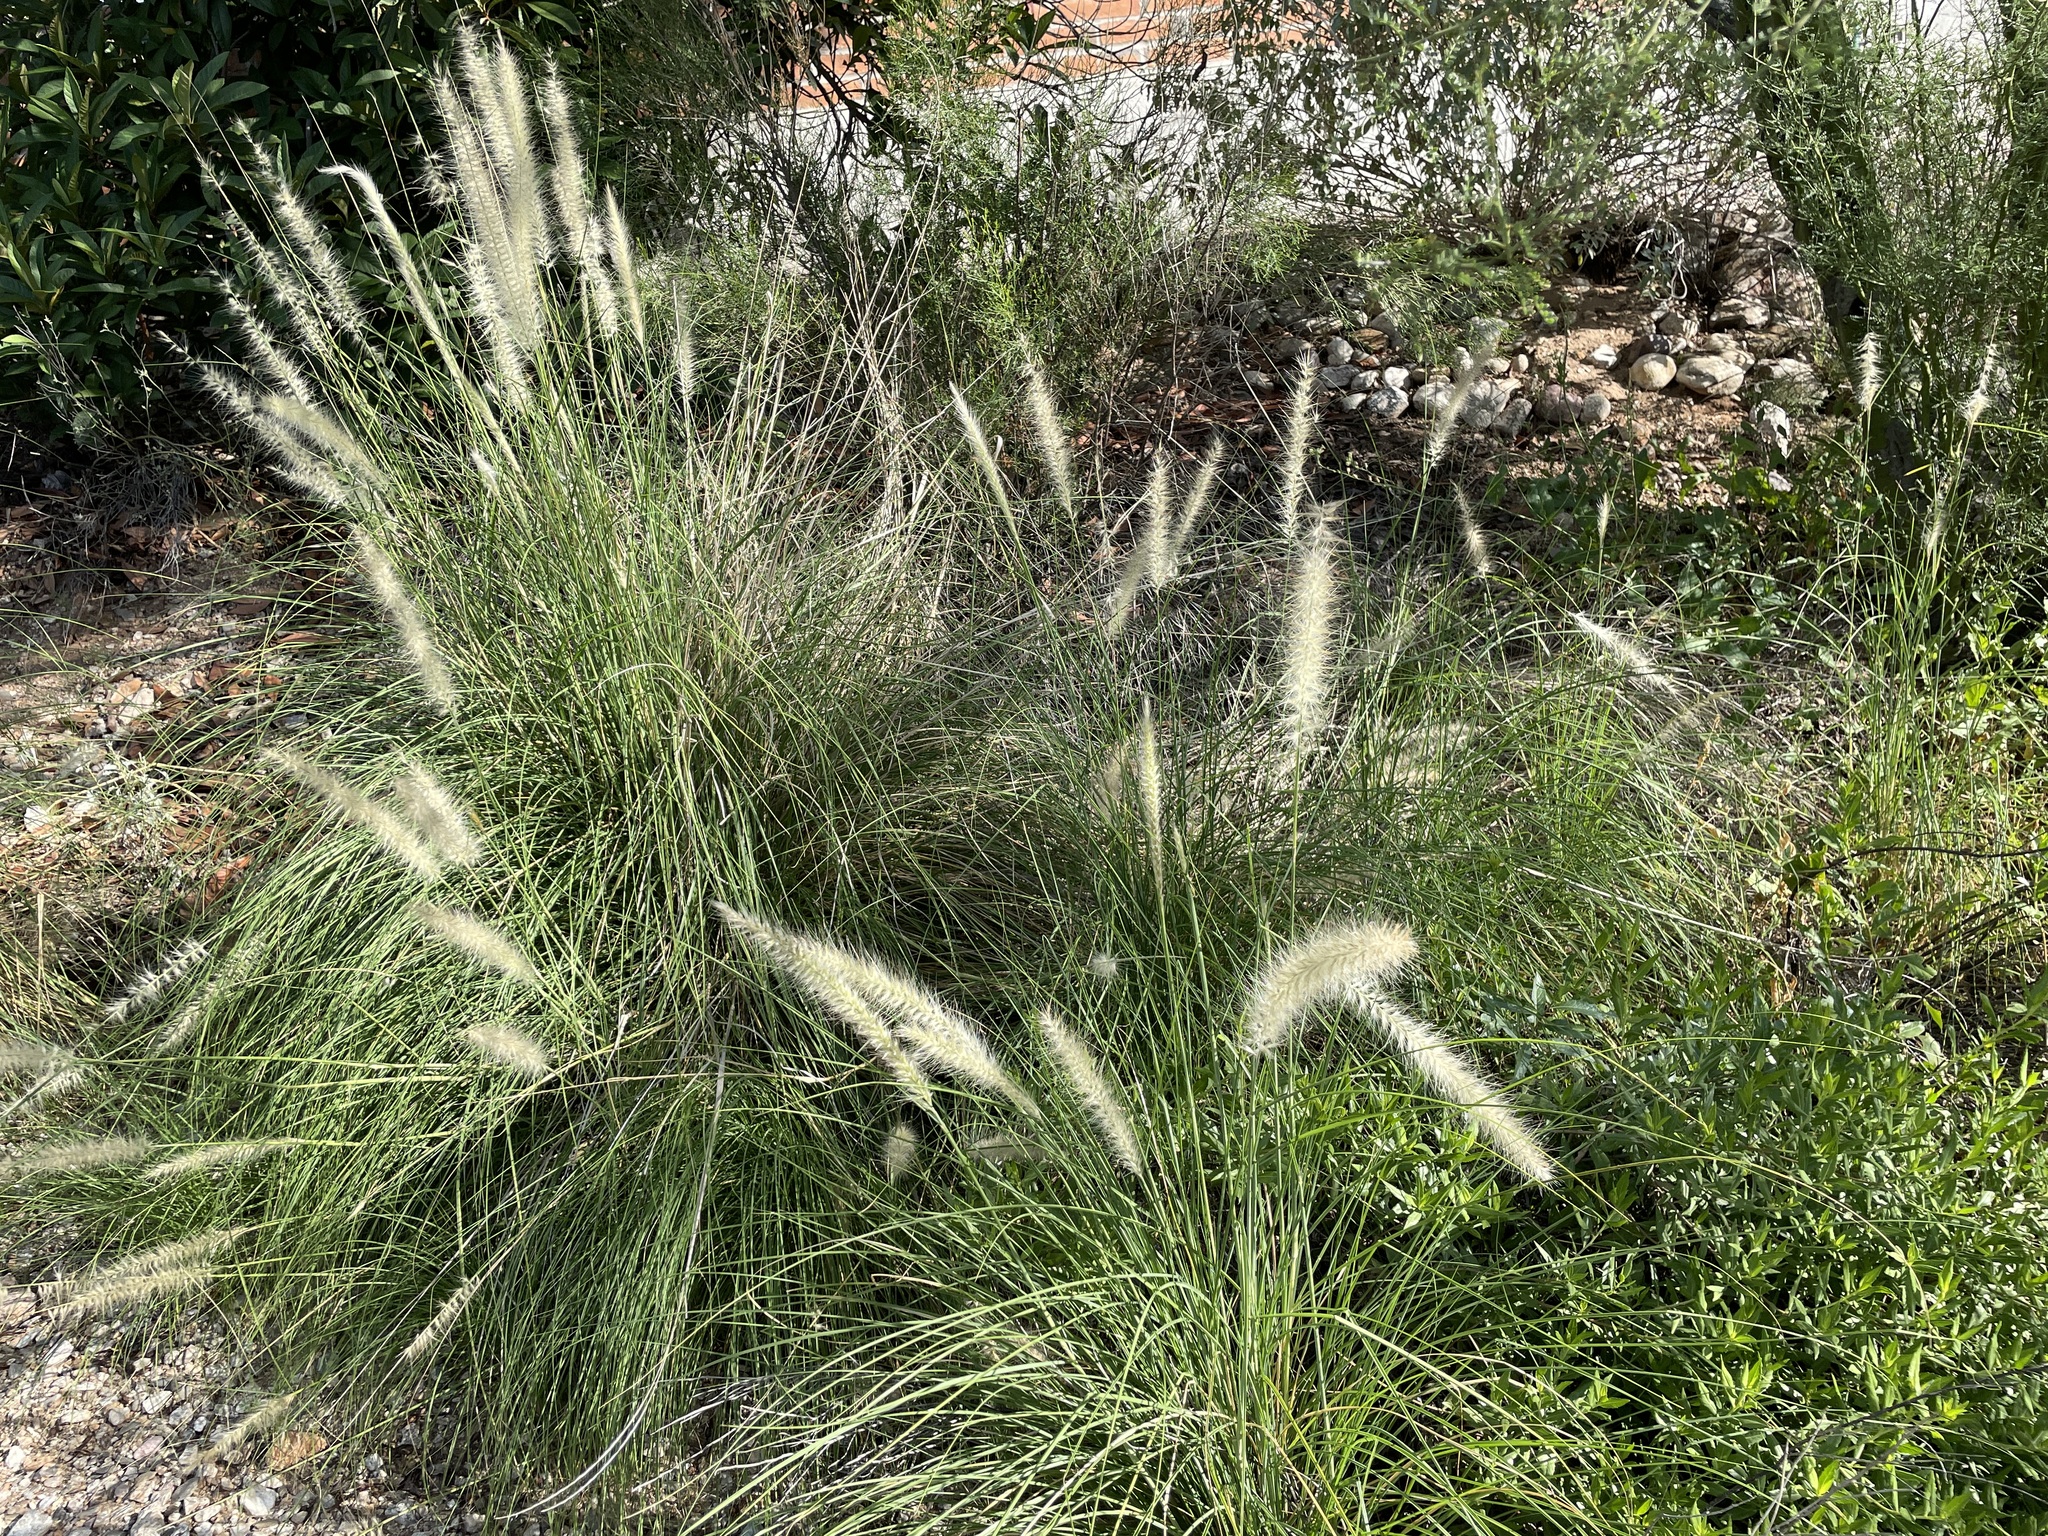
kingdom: Plantae
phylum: Tracheophyta
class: Liliopsida
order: Poales
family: Poaceae
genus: Cenchrus
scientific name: Cenchrus setaceus
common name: Crimson fountaingrass
